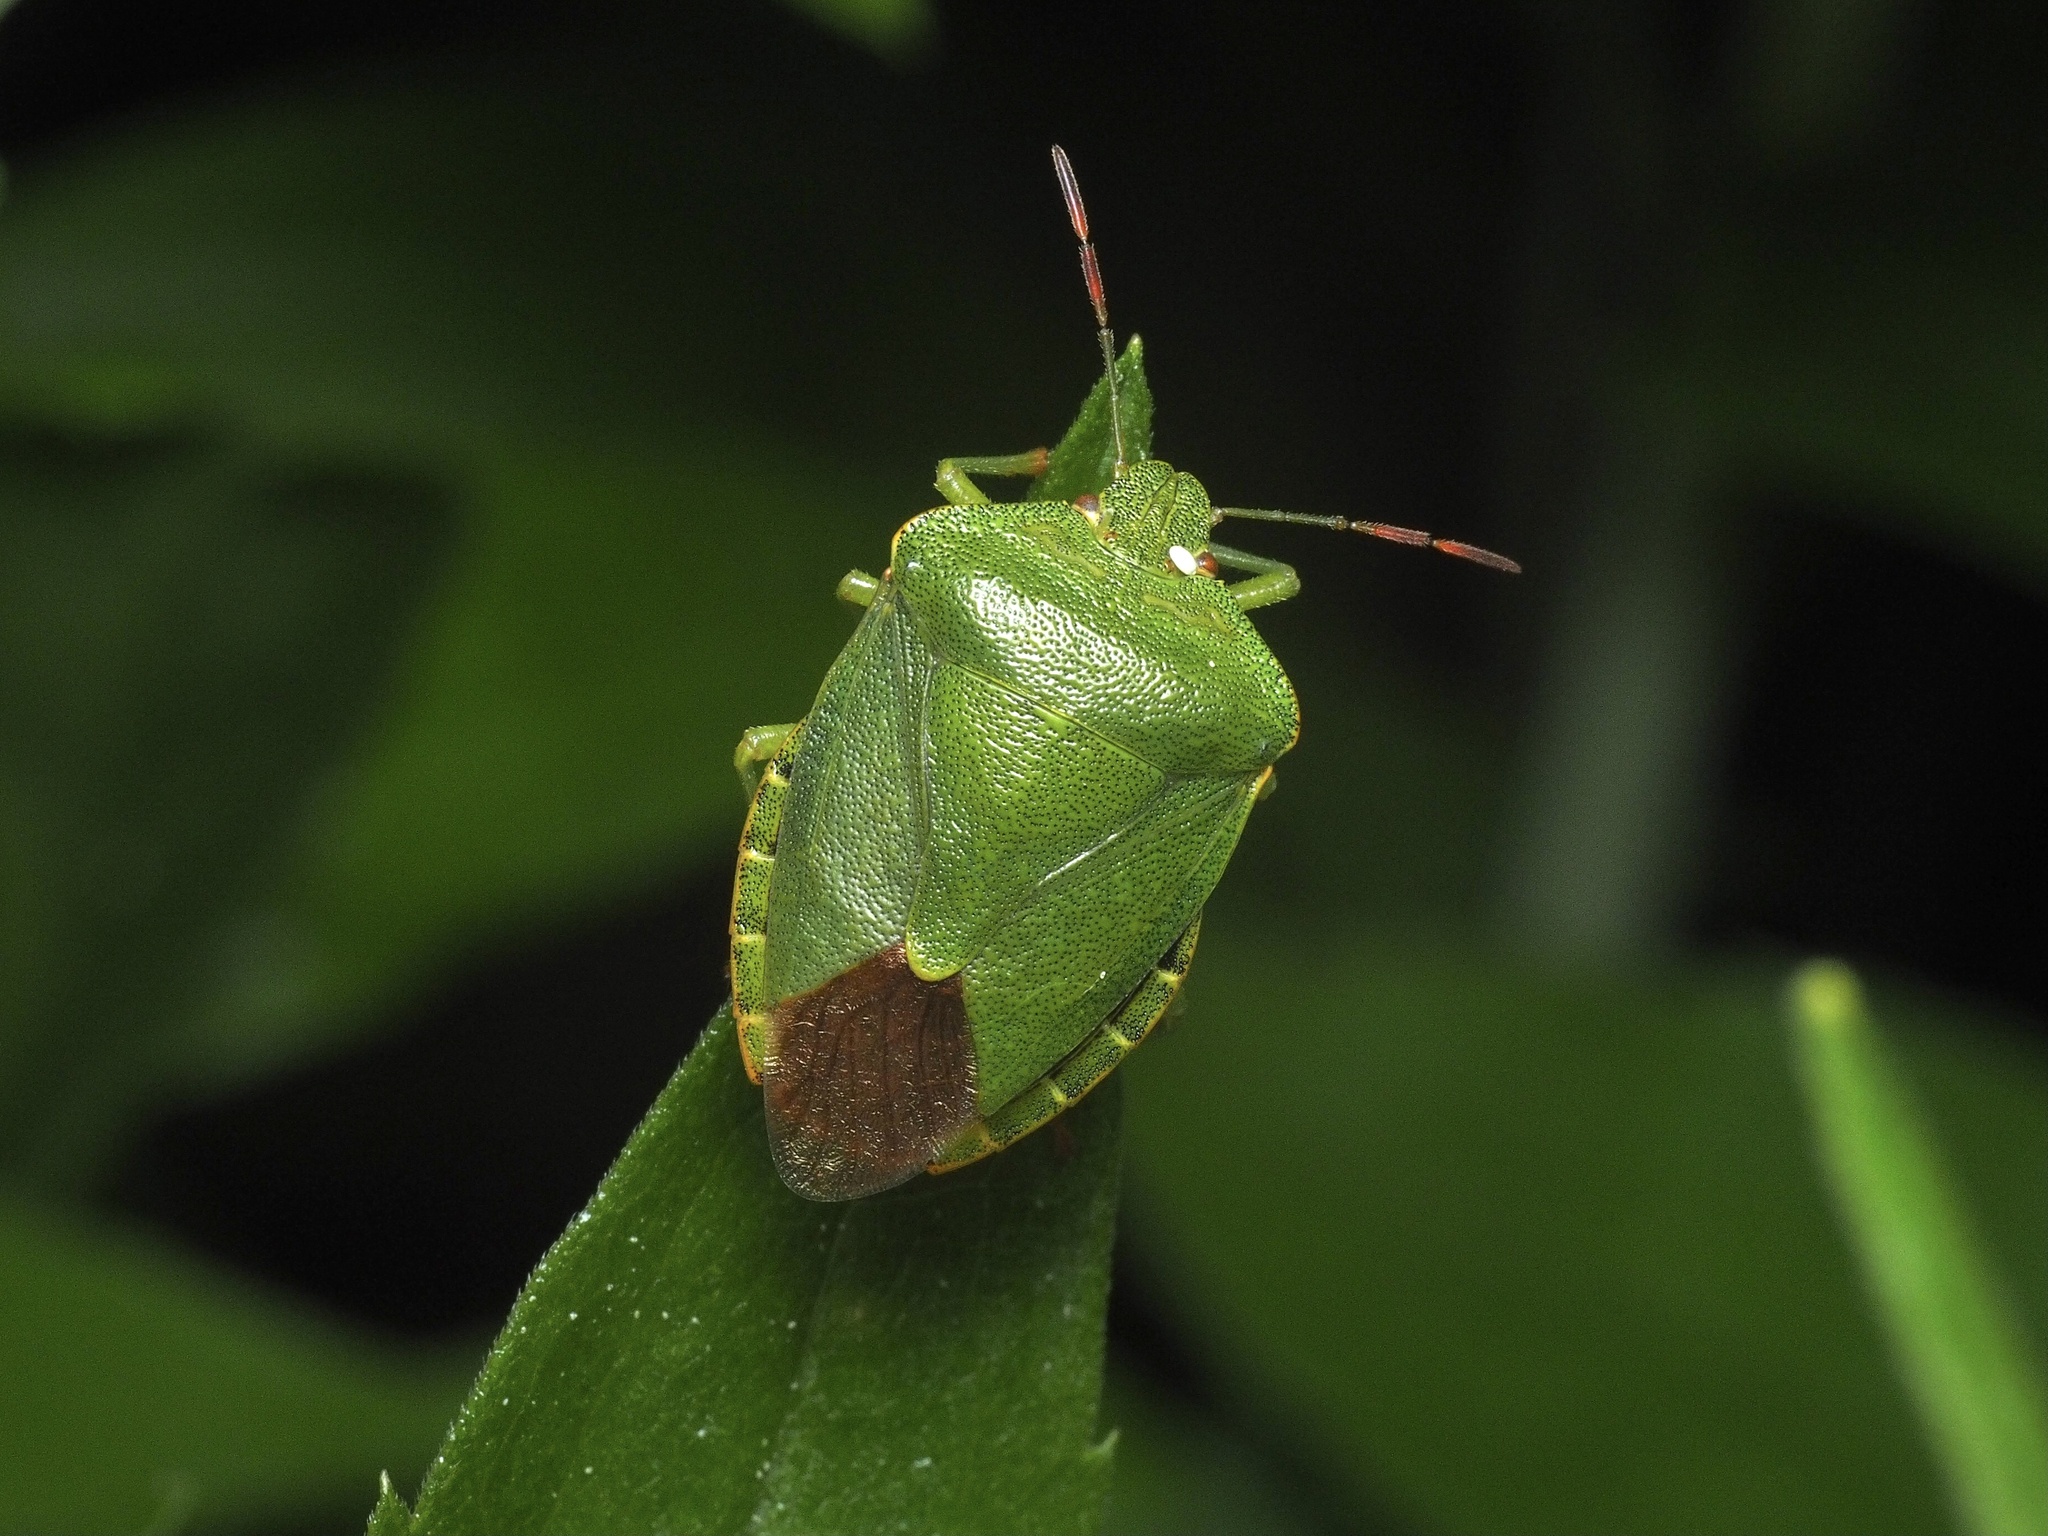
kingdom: Animalia
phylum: Arthropoda
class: Insecta
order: Hemiptera
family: Pentatomidae
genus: Palomena
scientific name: Palomena prasina
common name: Green shieldbug
